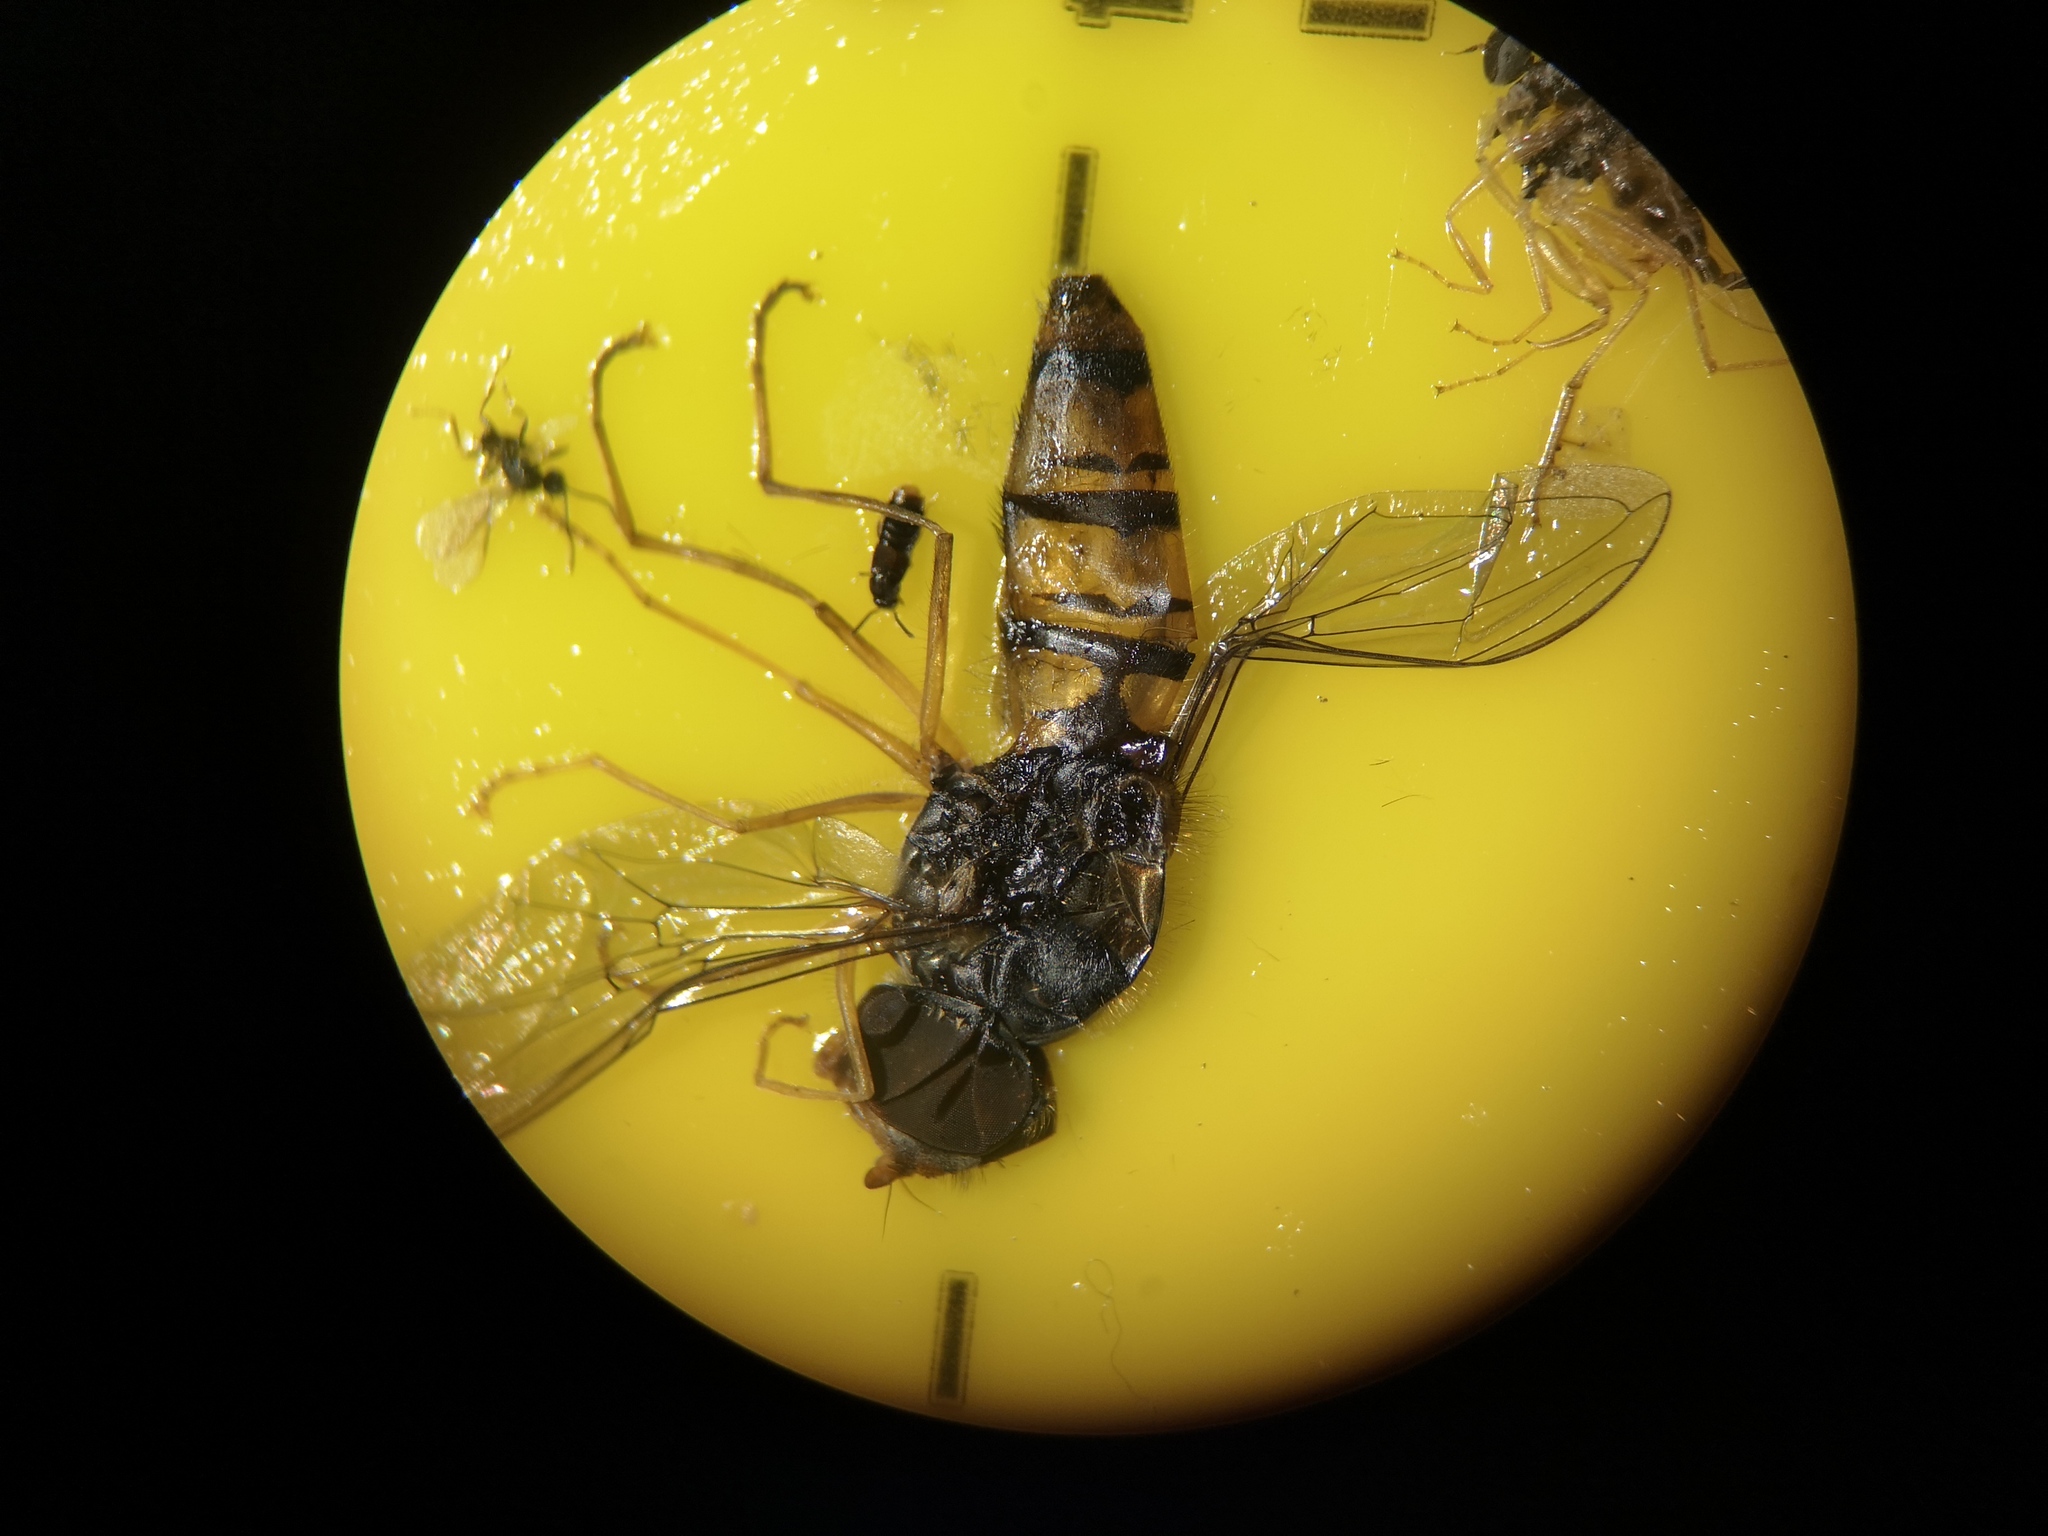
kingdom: Animalia
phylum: Arthropoda
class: Insecta
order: Diptera
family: Syrphidae
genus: Episyrphus
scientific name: Episyrphus balteatus
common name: Marmalade hoverfly
